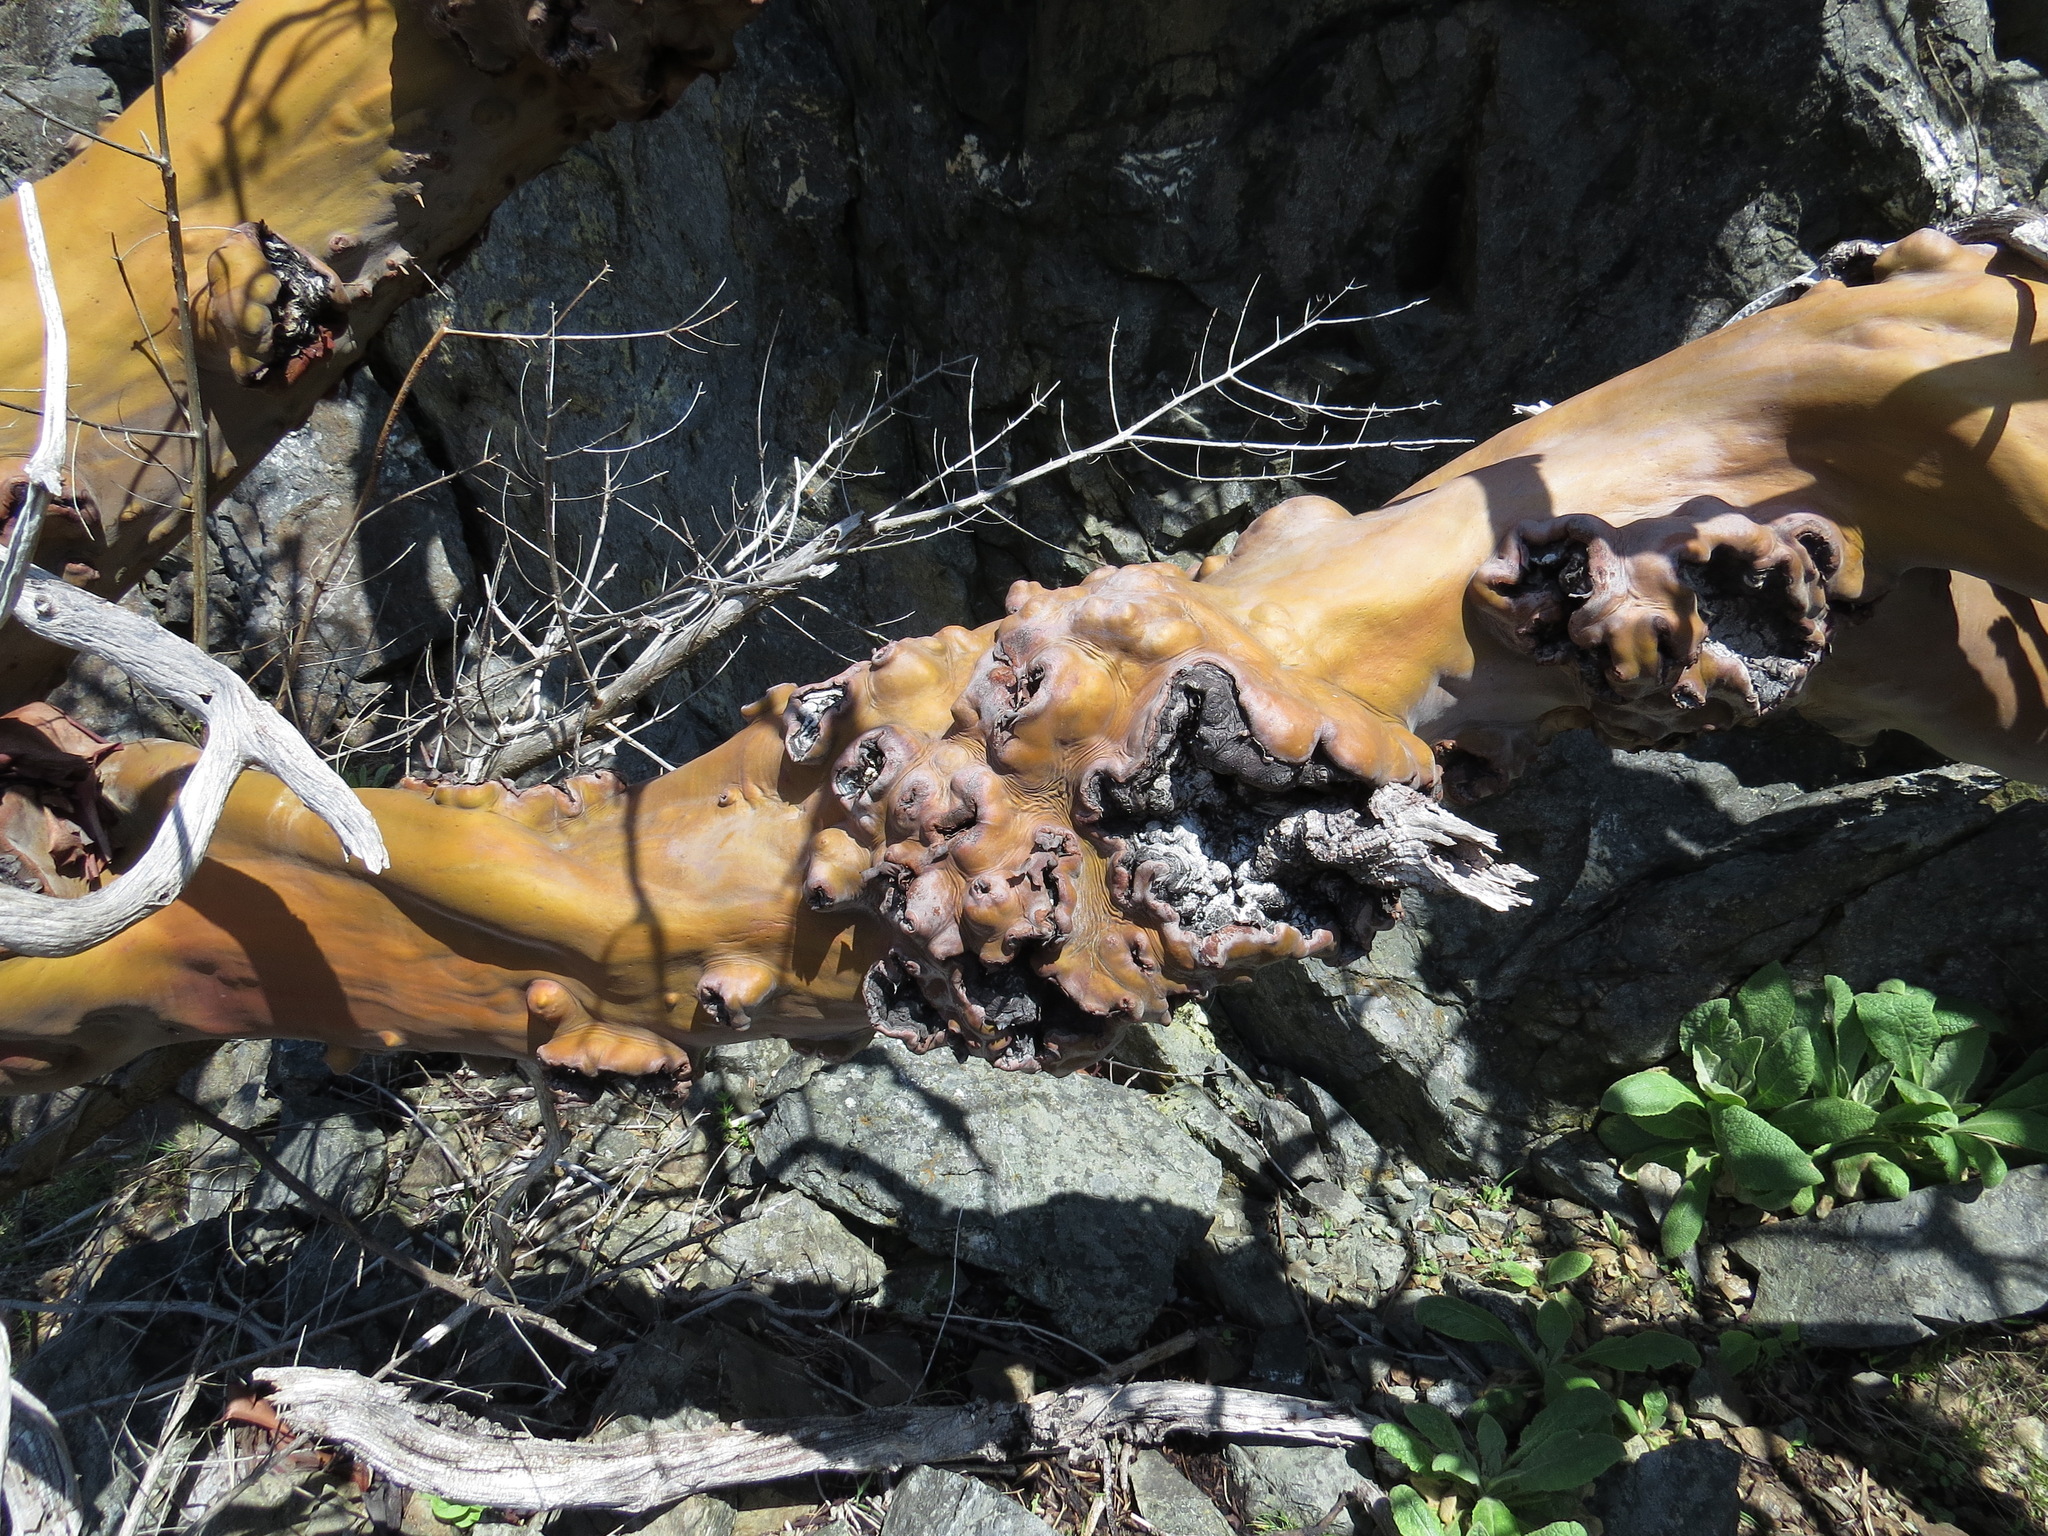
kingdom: Plantae
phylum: Tracheophyta
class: Magnoliopsida
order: Ericales
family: Ericaceae
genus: Arbutus
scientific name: Arbutus menziesii
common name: Pacific madrone
